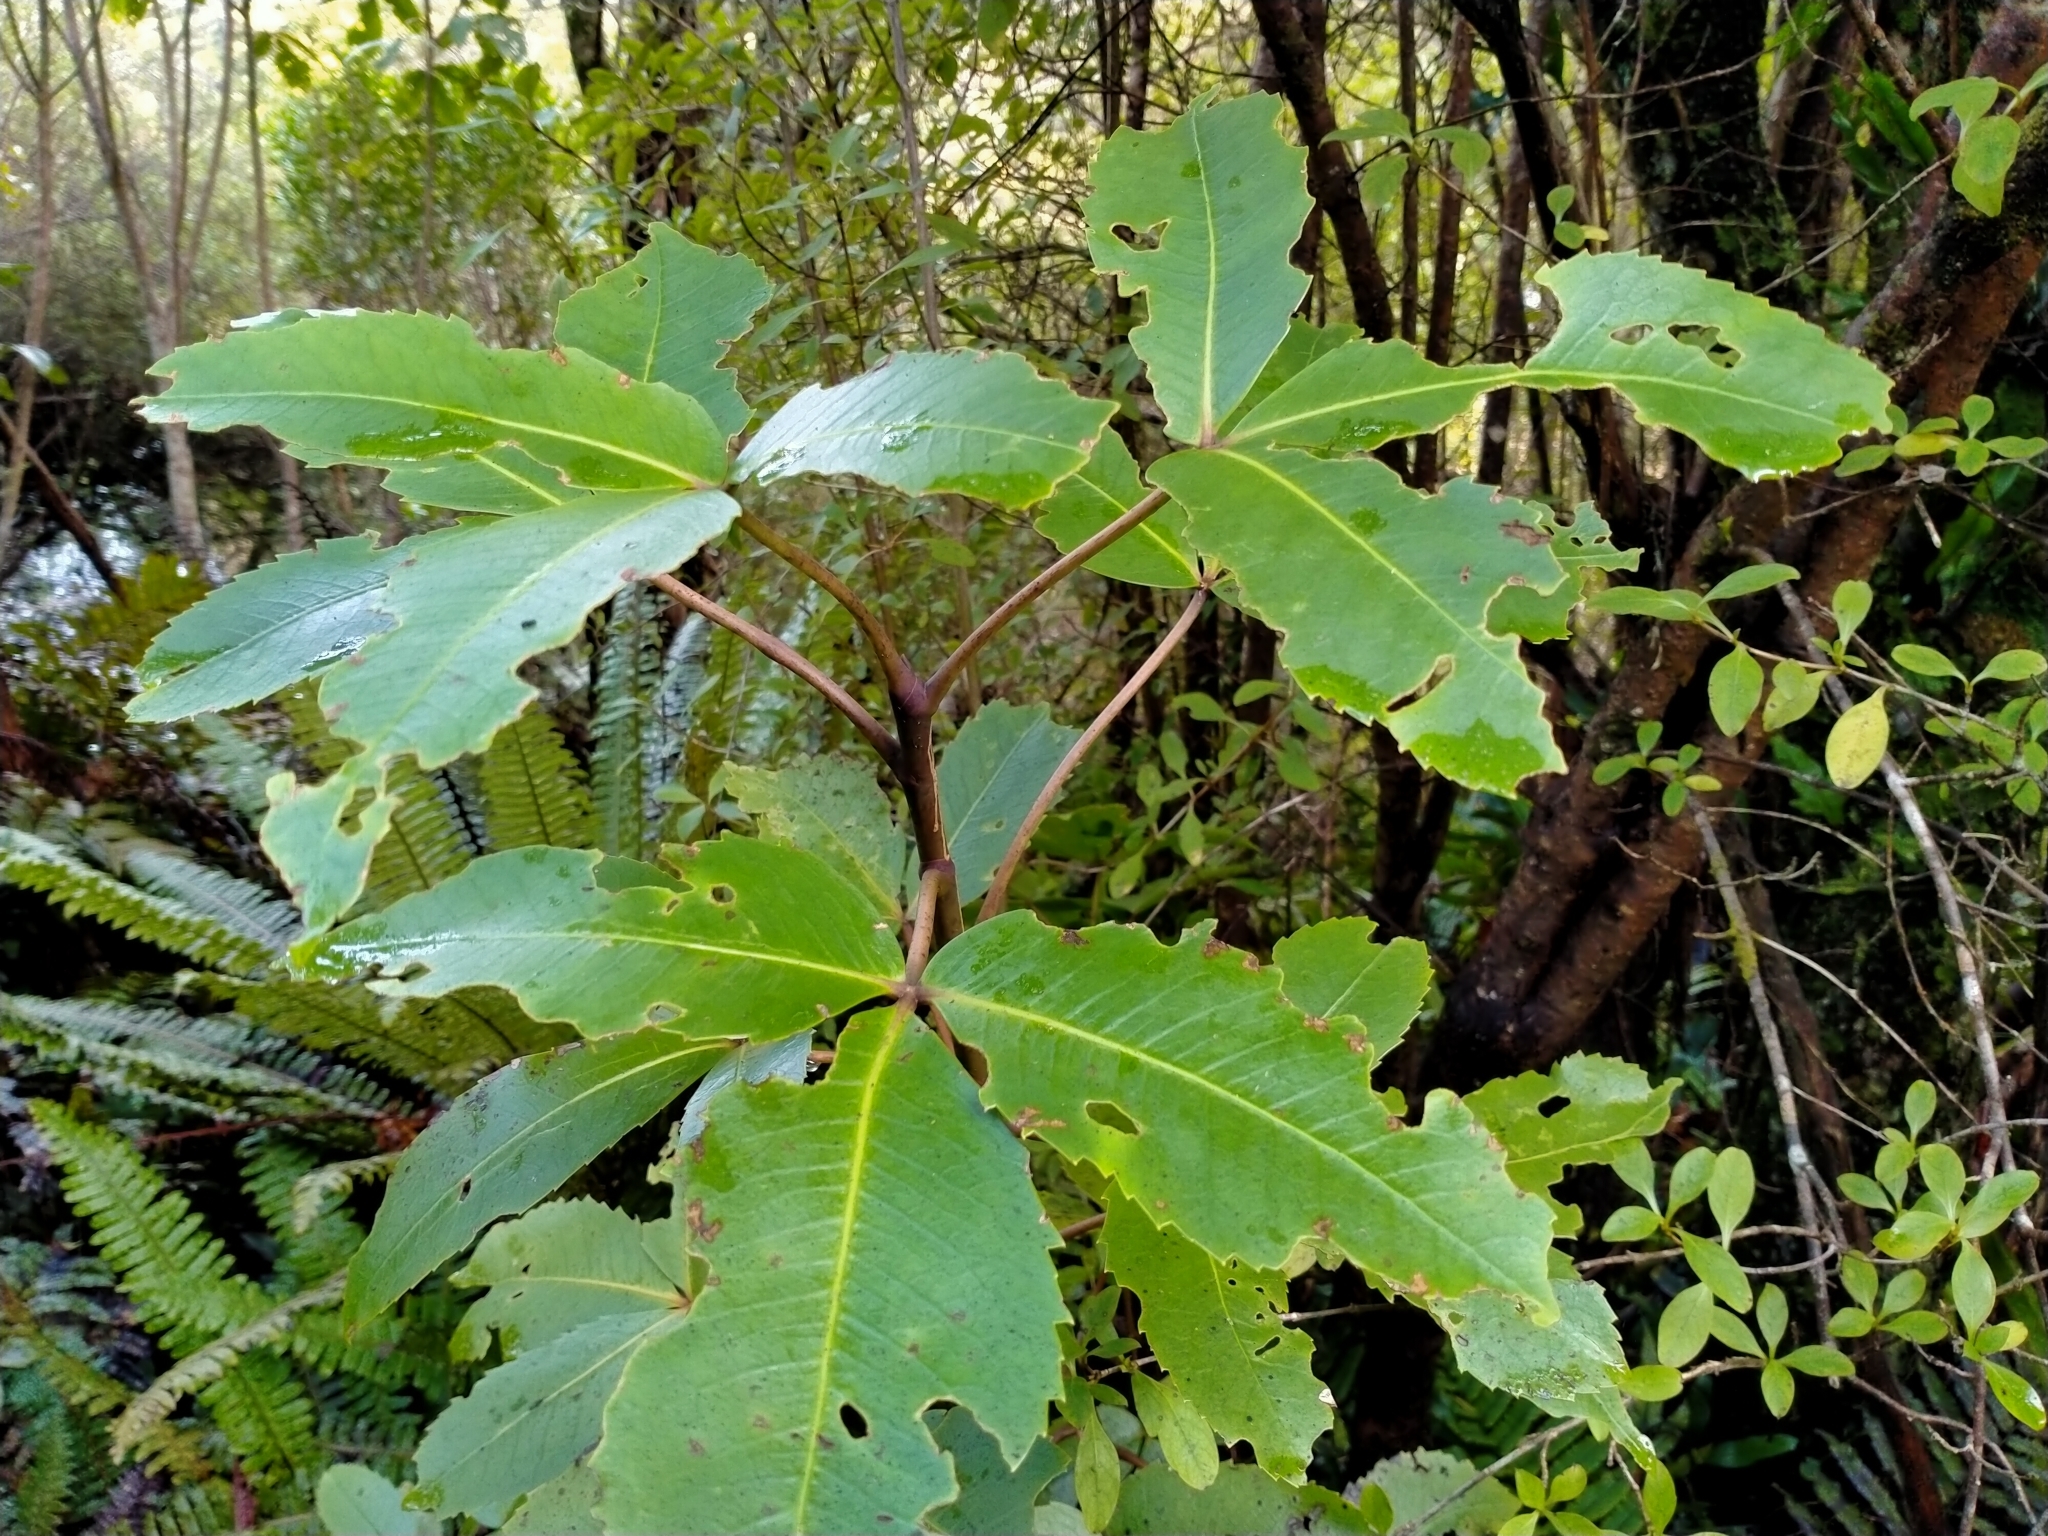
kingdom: Plantae
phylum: Tracheophyta
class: Magnoliopsida
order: Apiales
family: Araliaceae
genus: Neopanax
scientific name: Neopanax colensoi
